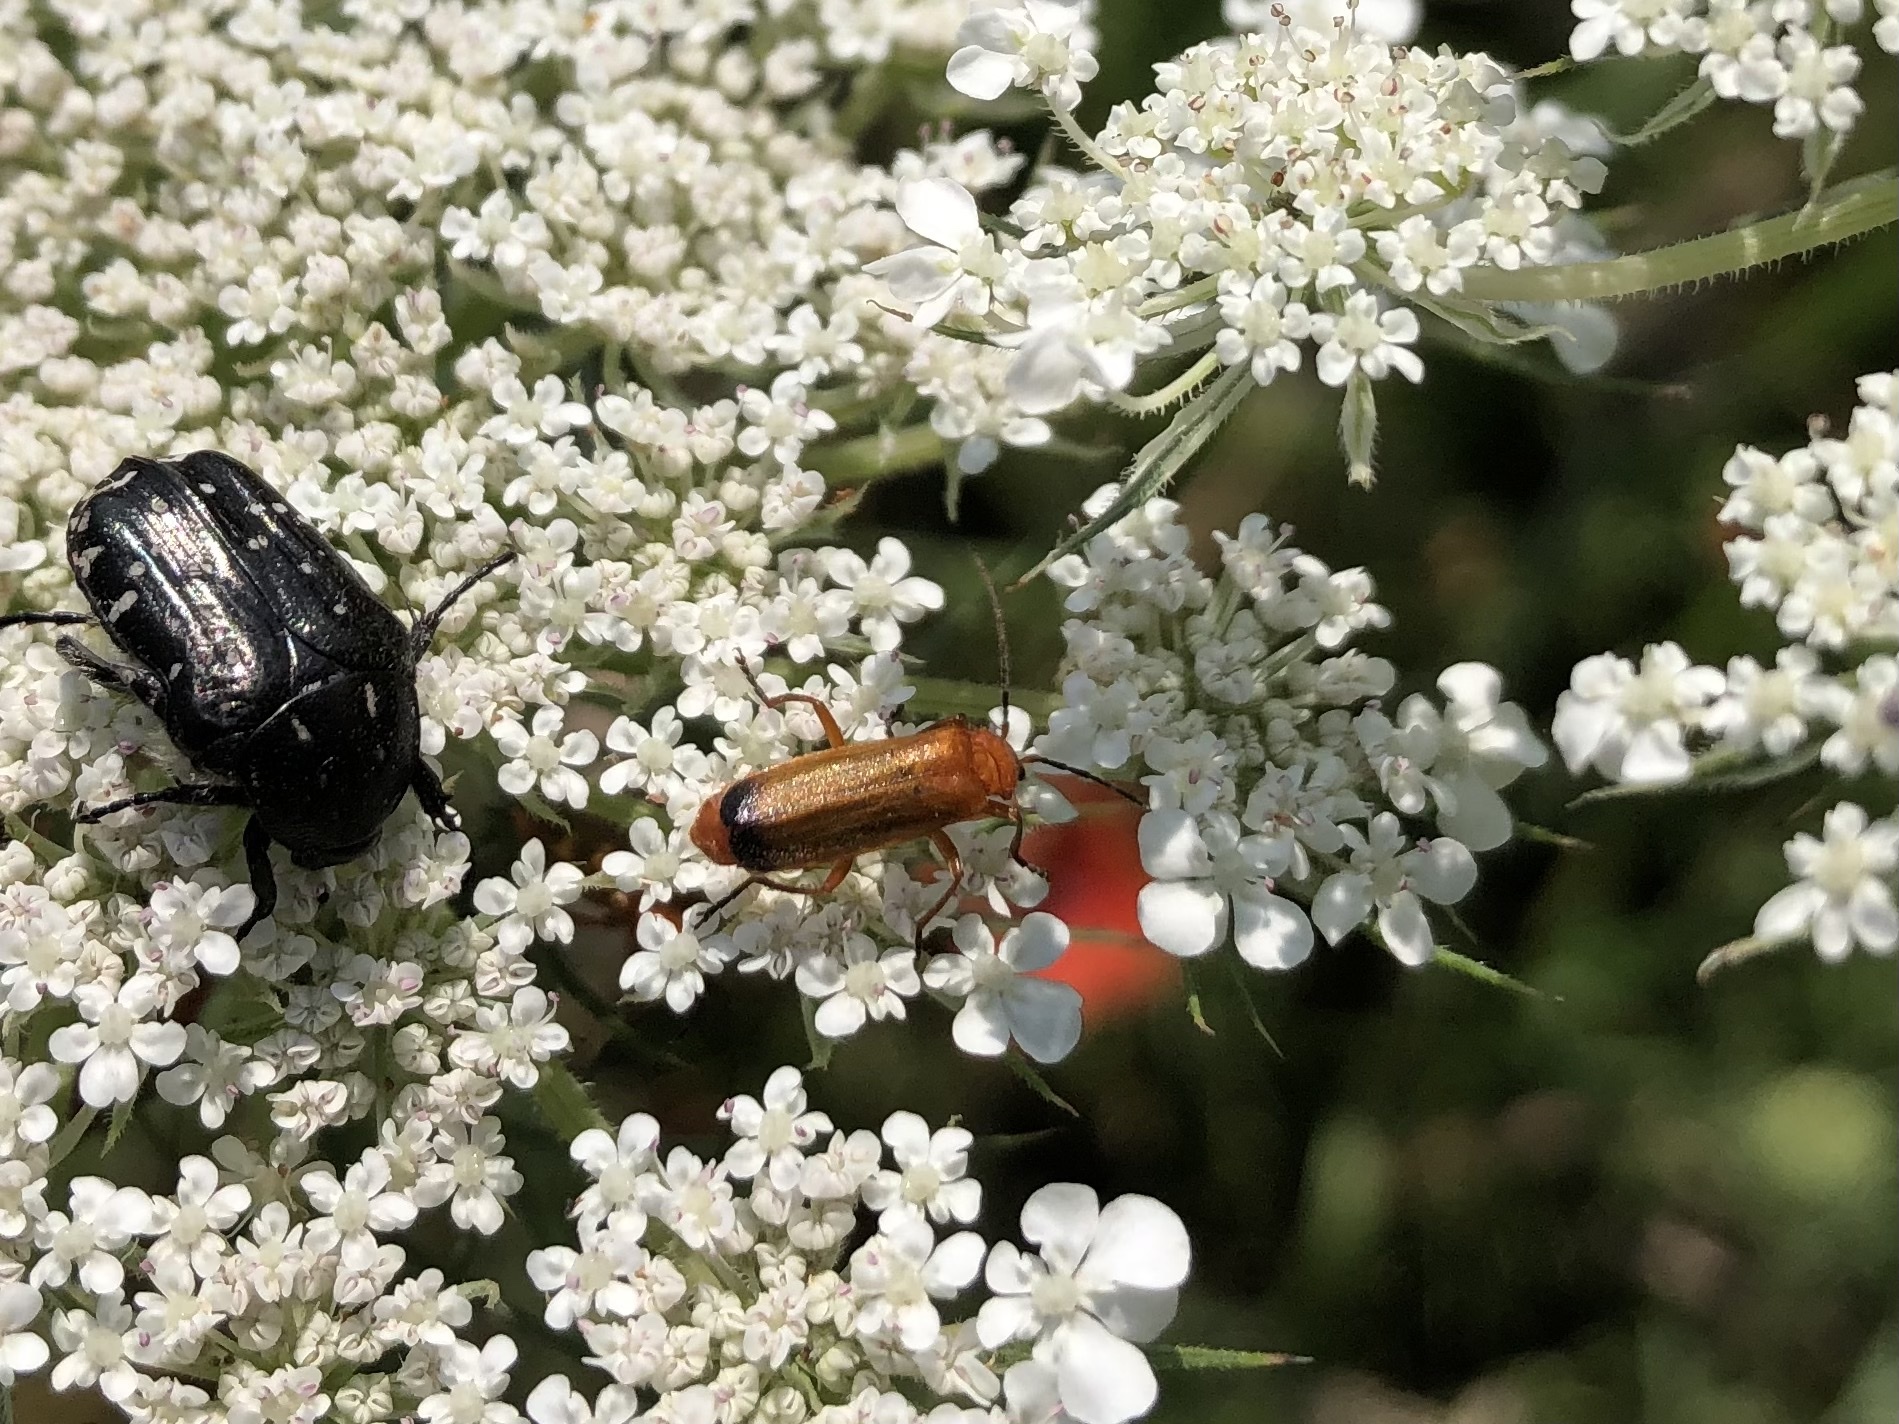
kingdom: Animalia
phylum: Arthropoda
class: Insecta
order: Coleoptera
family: Cantharidae
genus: Rhagonycha
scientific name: Rhagonycha fulva
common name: Common red soldier beetle
